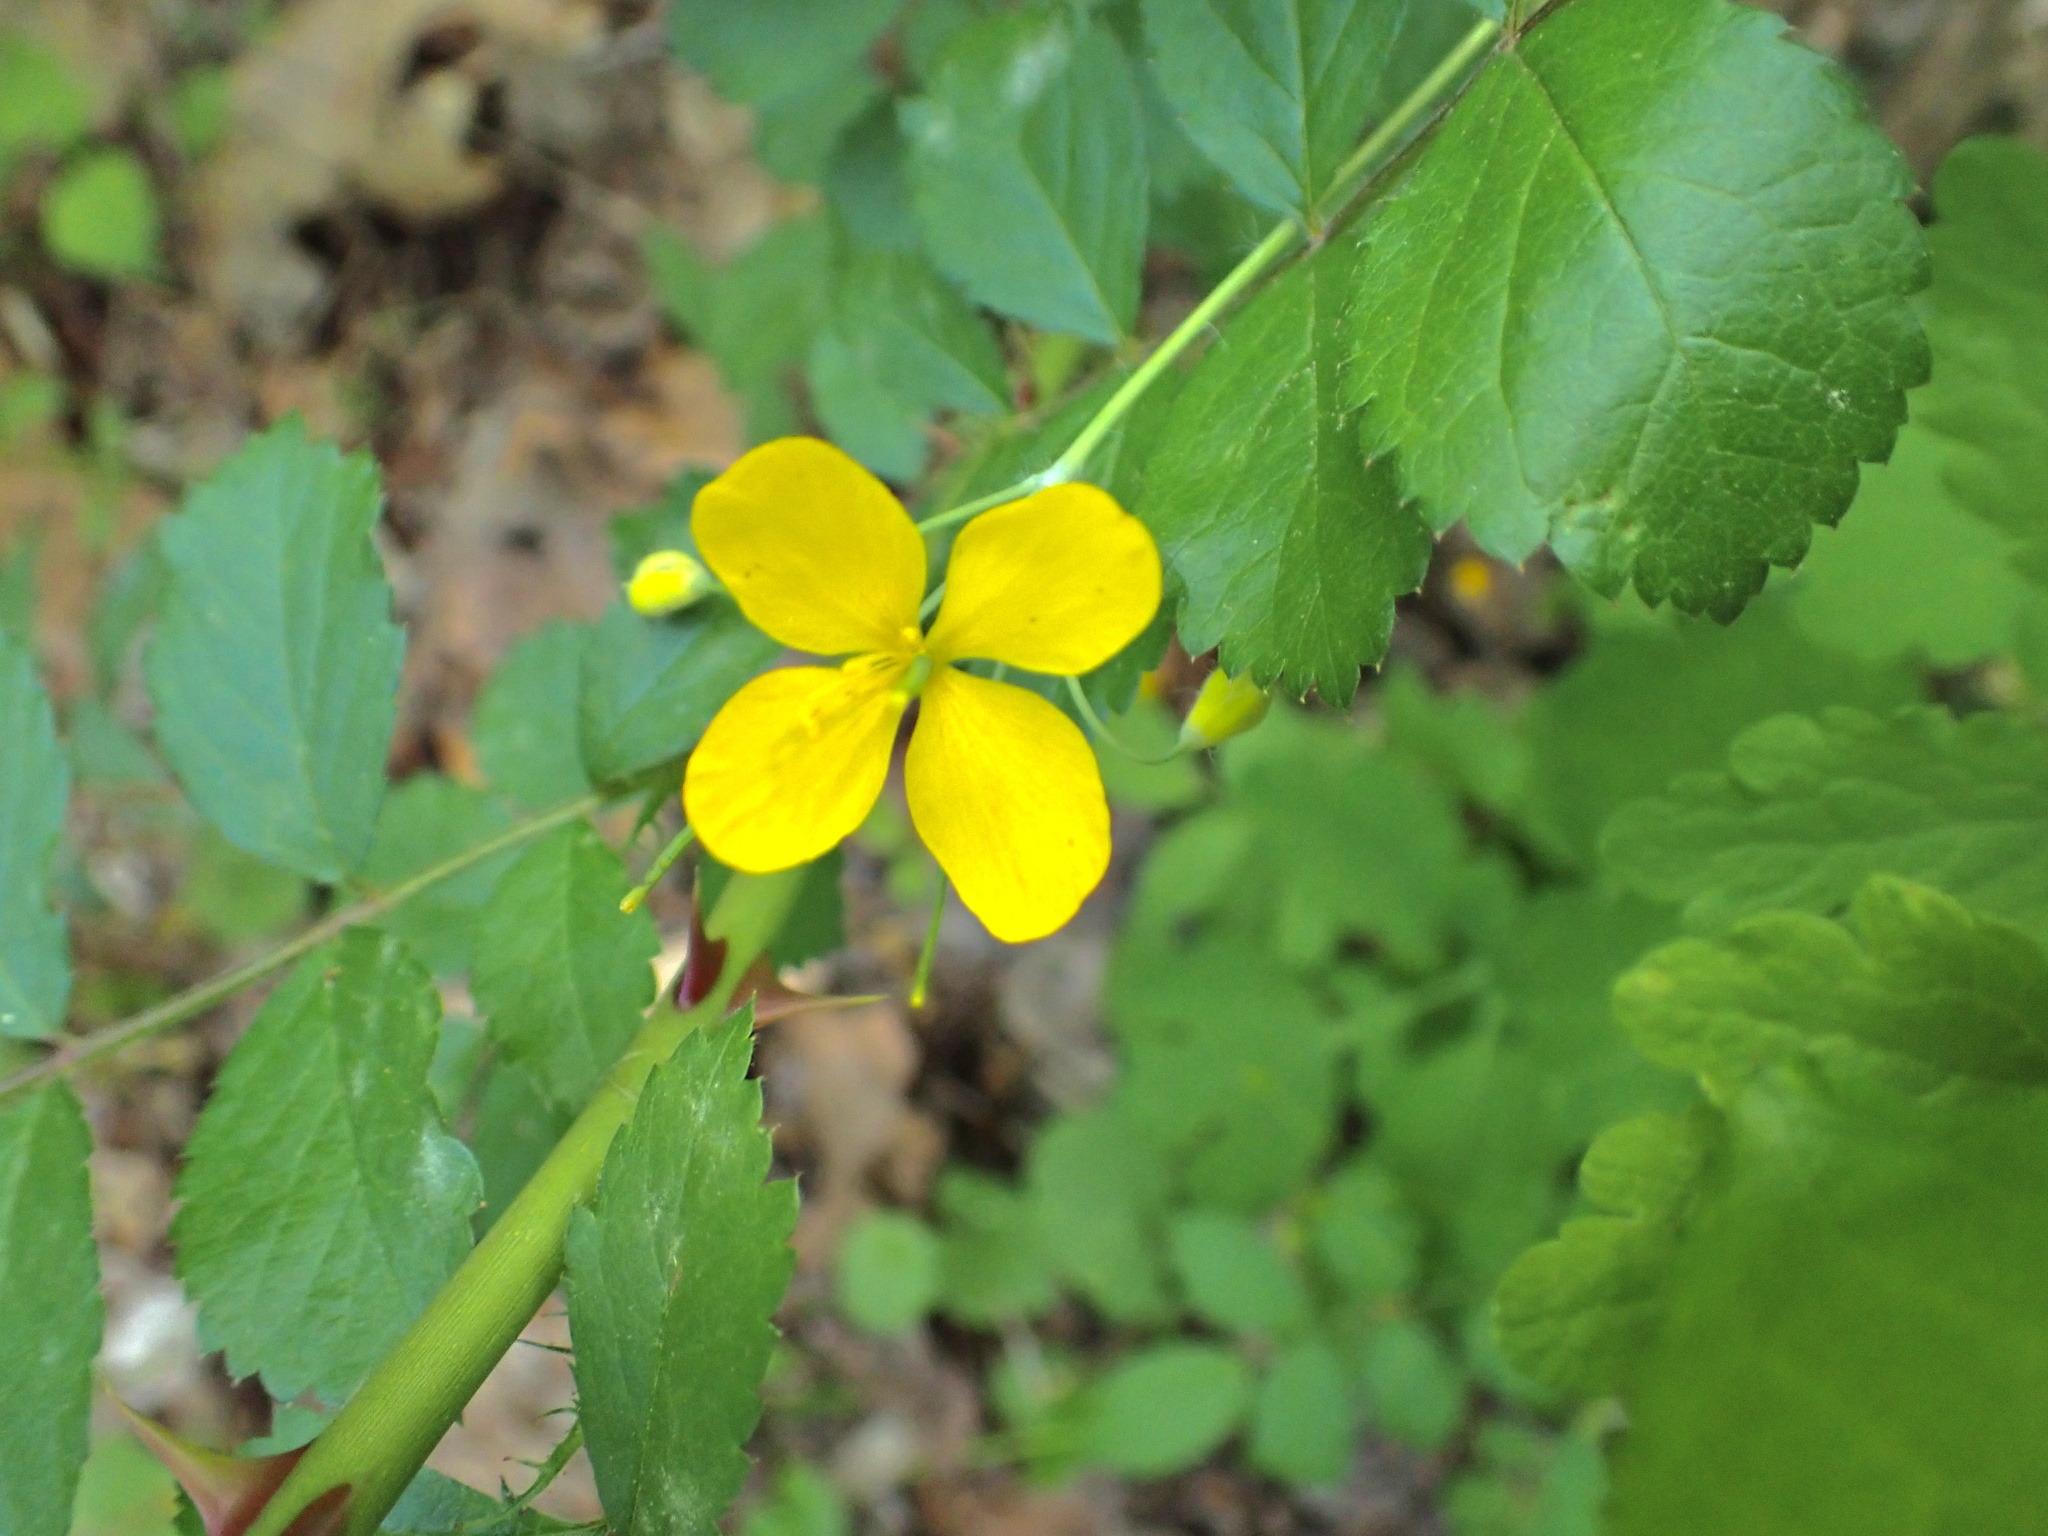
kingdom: Plantae
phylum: Tracheophyta
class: Magnoliopsida
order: Ranunculales
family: Papaveraceae
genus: Chelidonium
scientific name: Chelidonium majus
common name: Greater celandine
